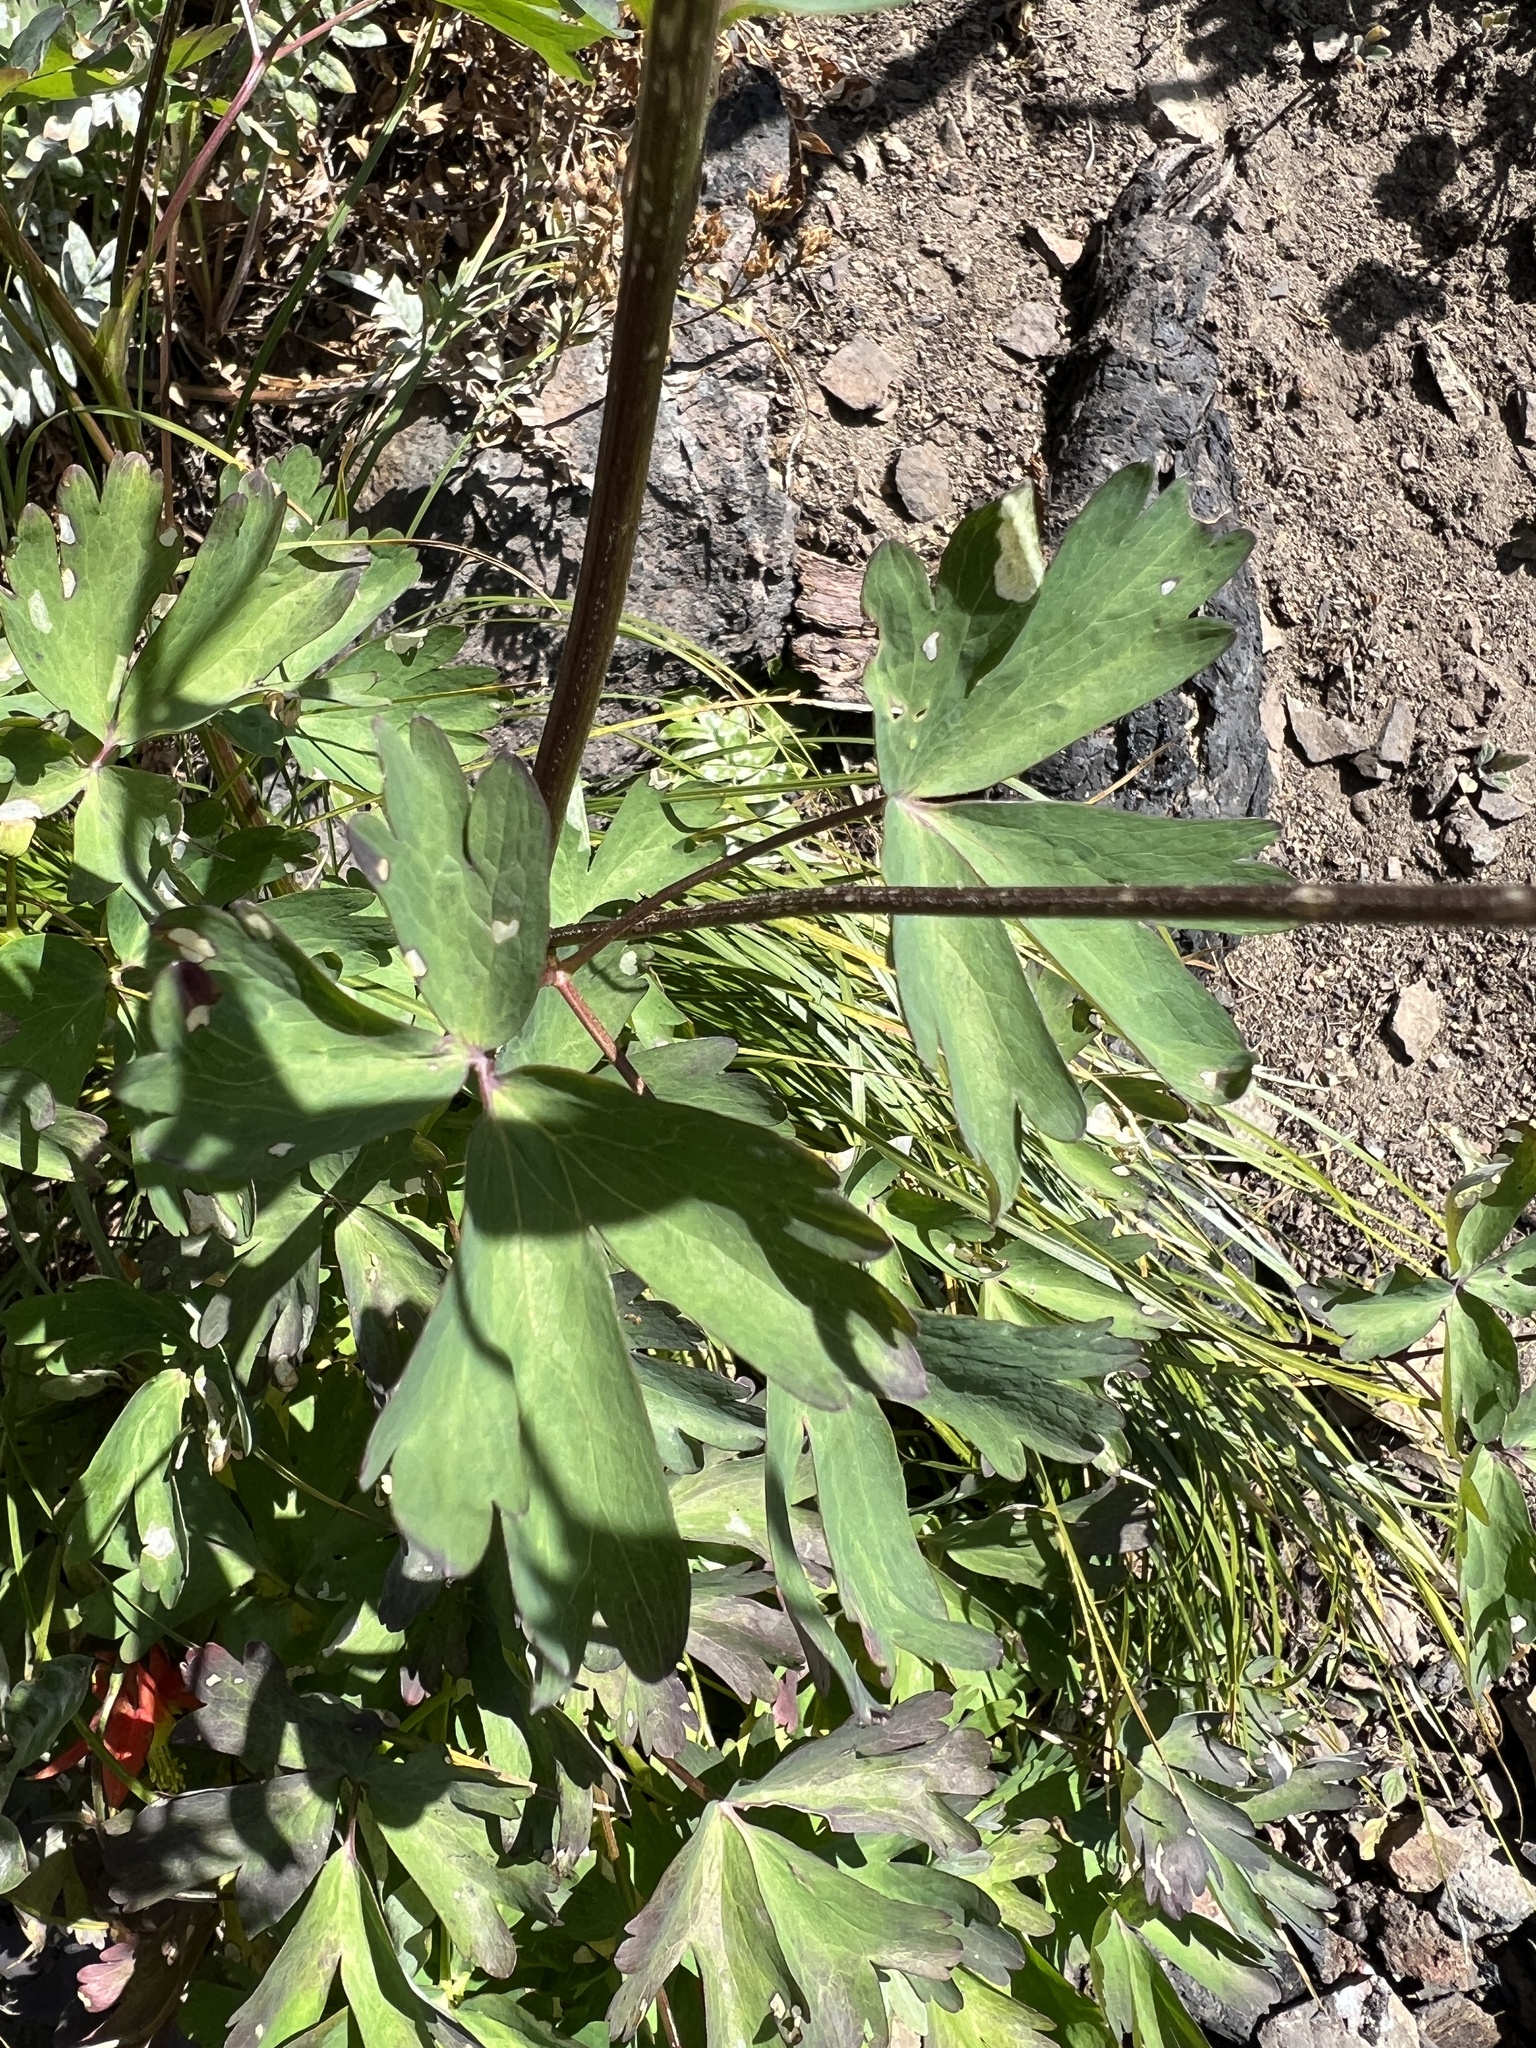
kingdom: Plantae
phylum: Tracheophyta
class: Magnoliopsida
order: Ranunculales
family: Ranunculaceae
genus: Aquilegia
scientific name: Aquilegia formosa
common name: Sitka columbine
